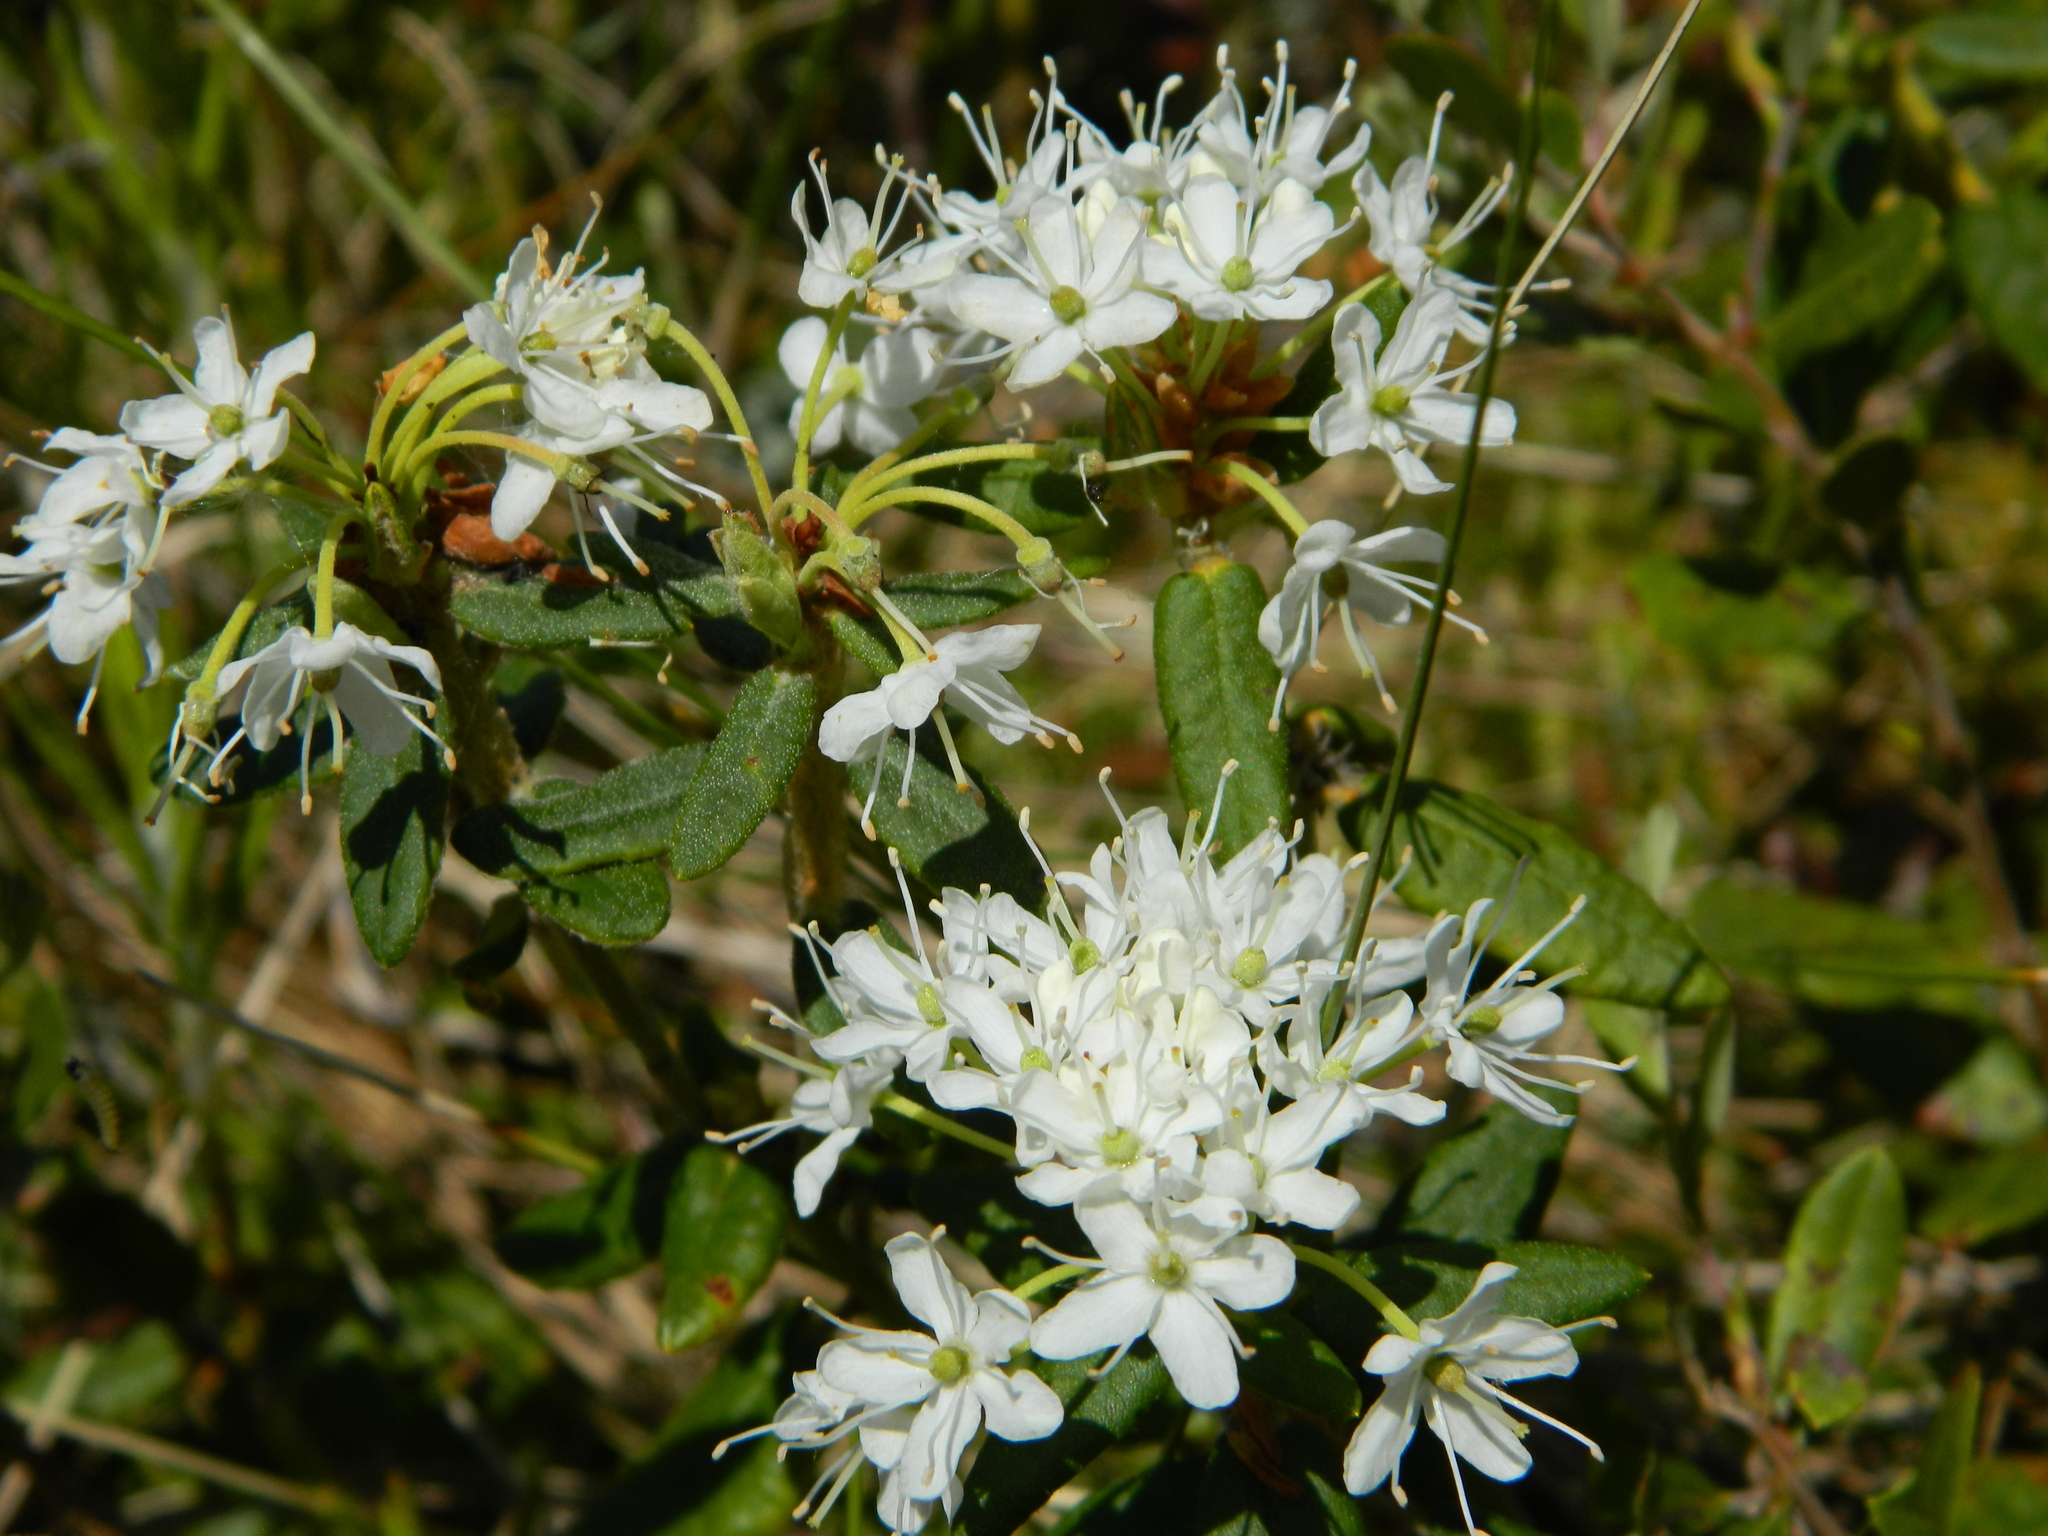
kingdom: Plantae
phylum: Tracheophyta
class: Magnoliopsida
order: Ericales
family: Ericaceae
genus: Rhododendron
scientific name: Rhododendron groenlandicum
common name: Bog labrador tea
